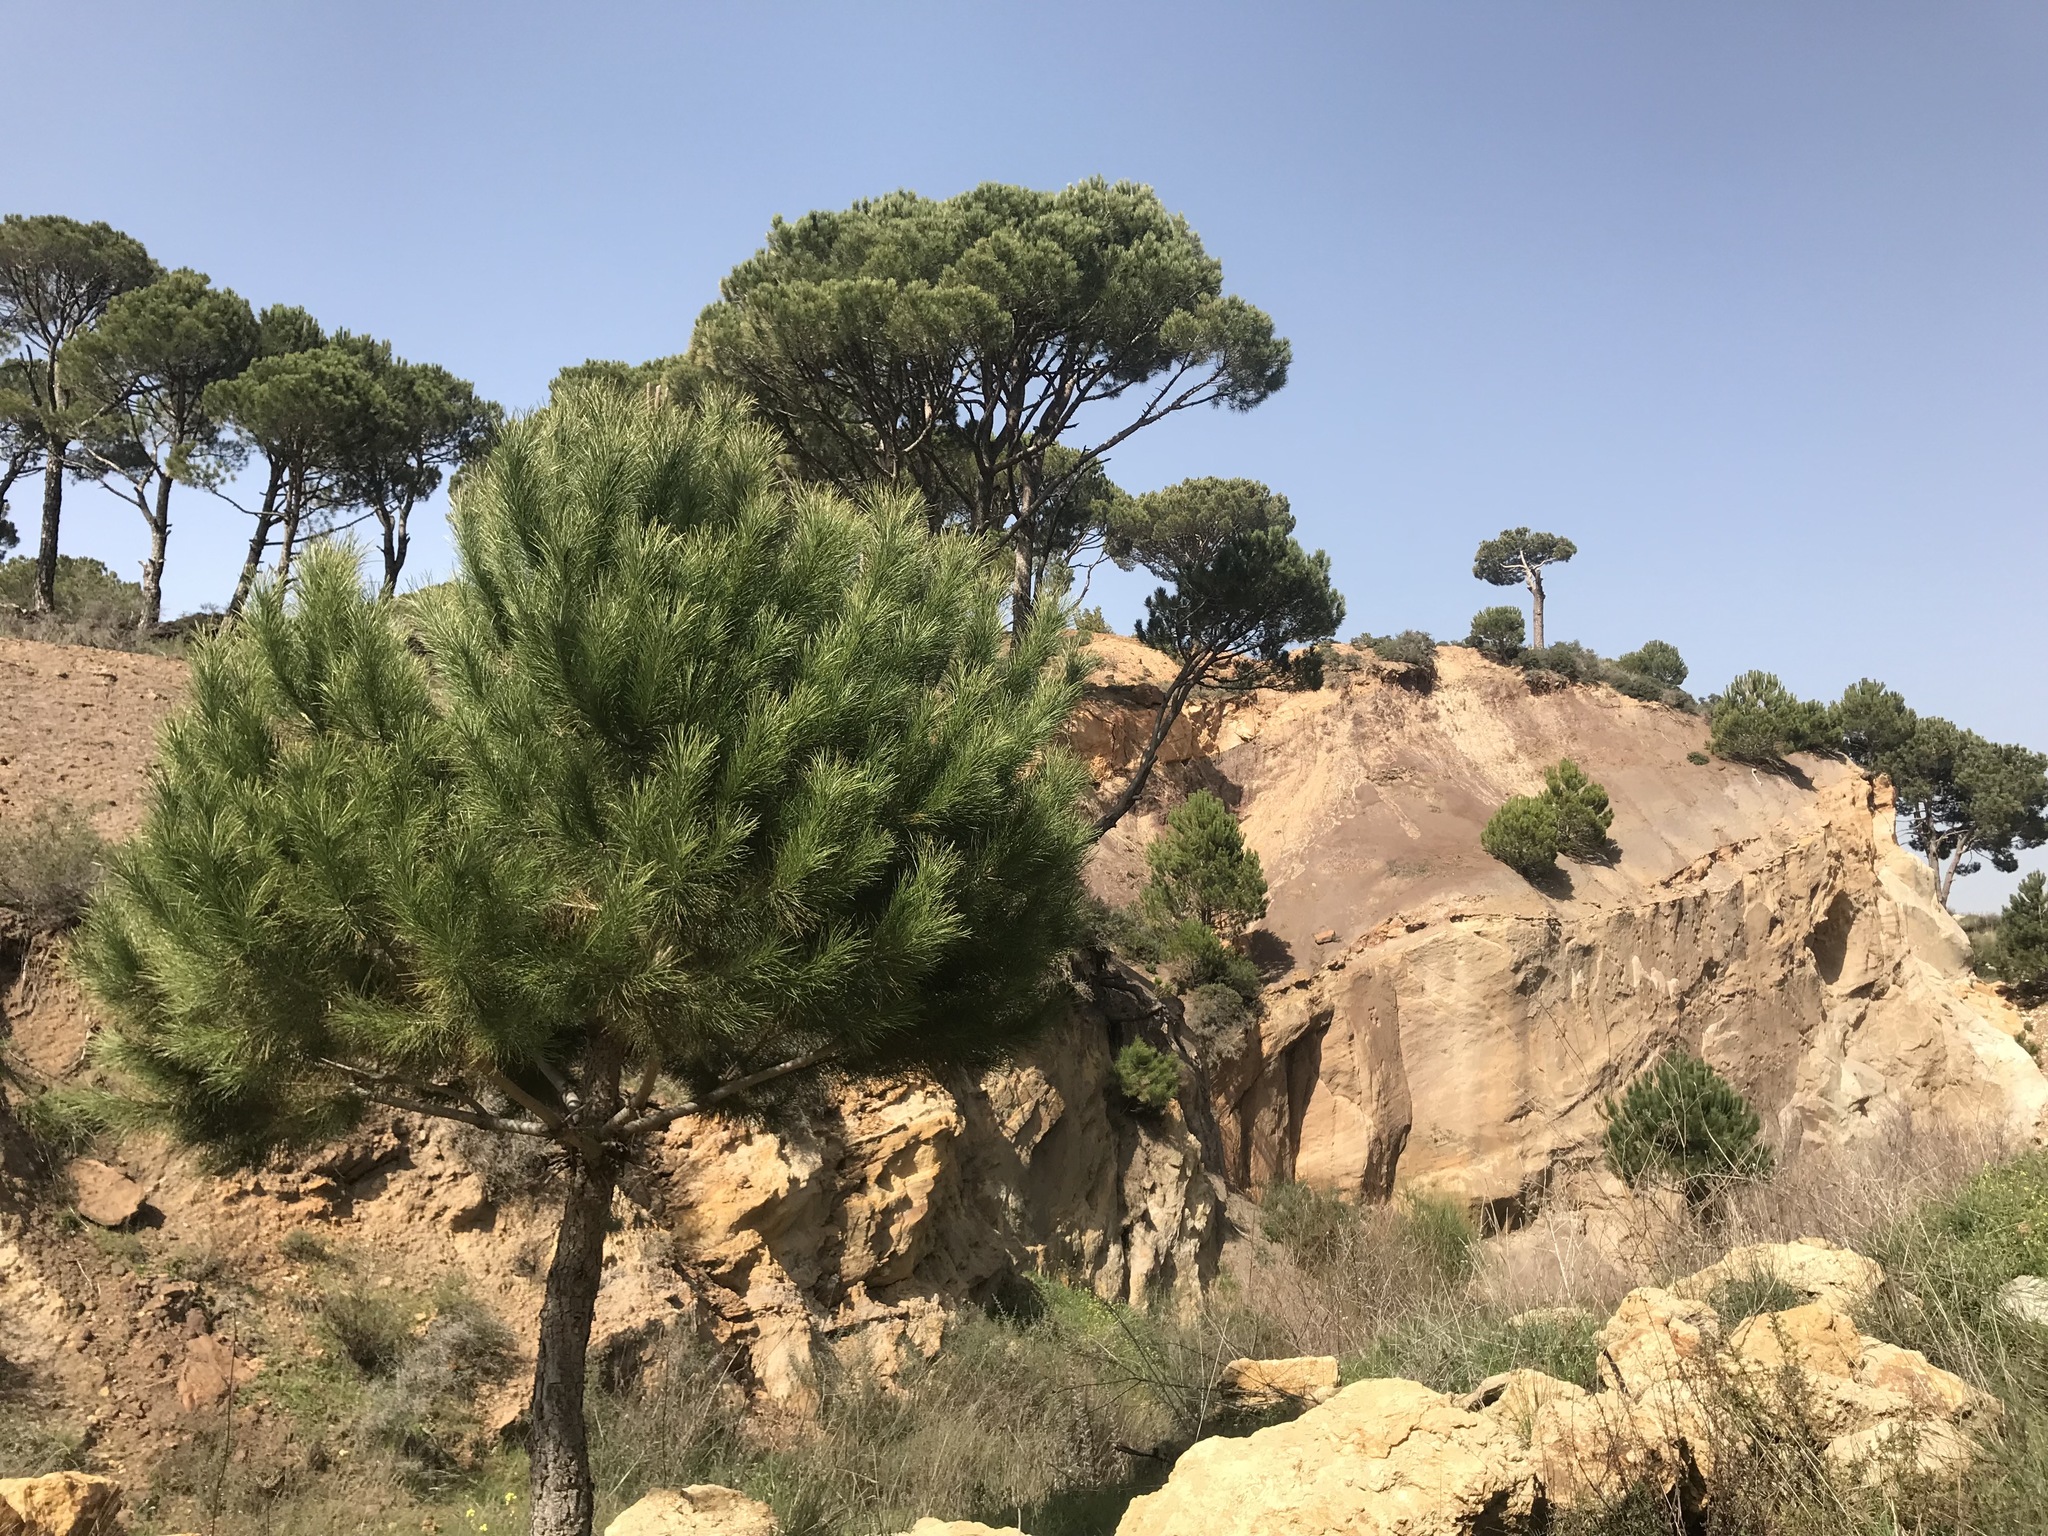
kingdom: Plantae
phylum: Tracheophyta
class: Pinopsida
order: Pinales
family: Pinaceae
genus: Pinus
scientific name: Pinus pinea
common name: Italian stone pine
